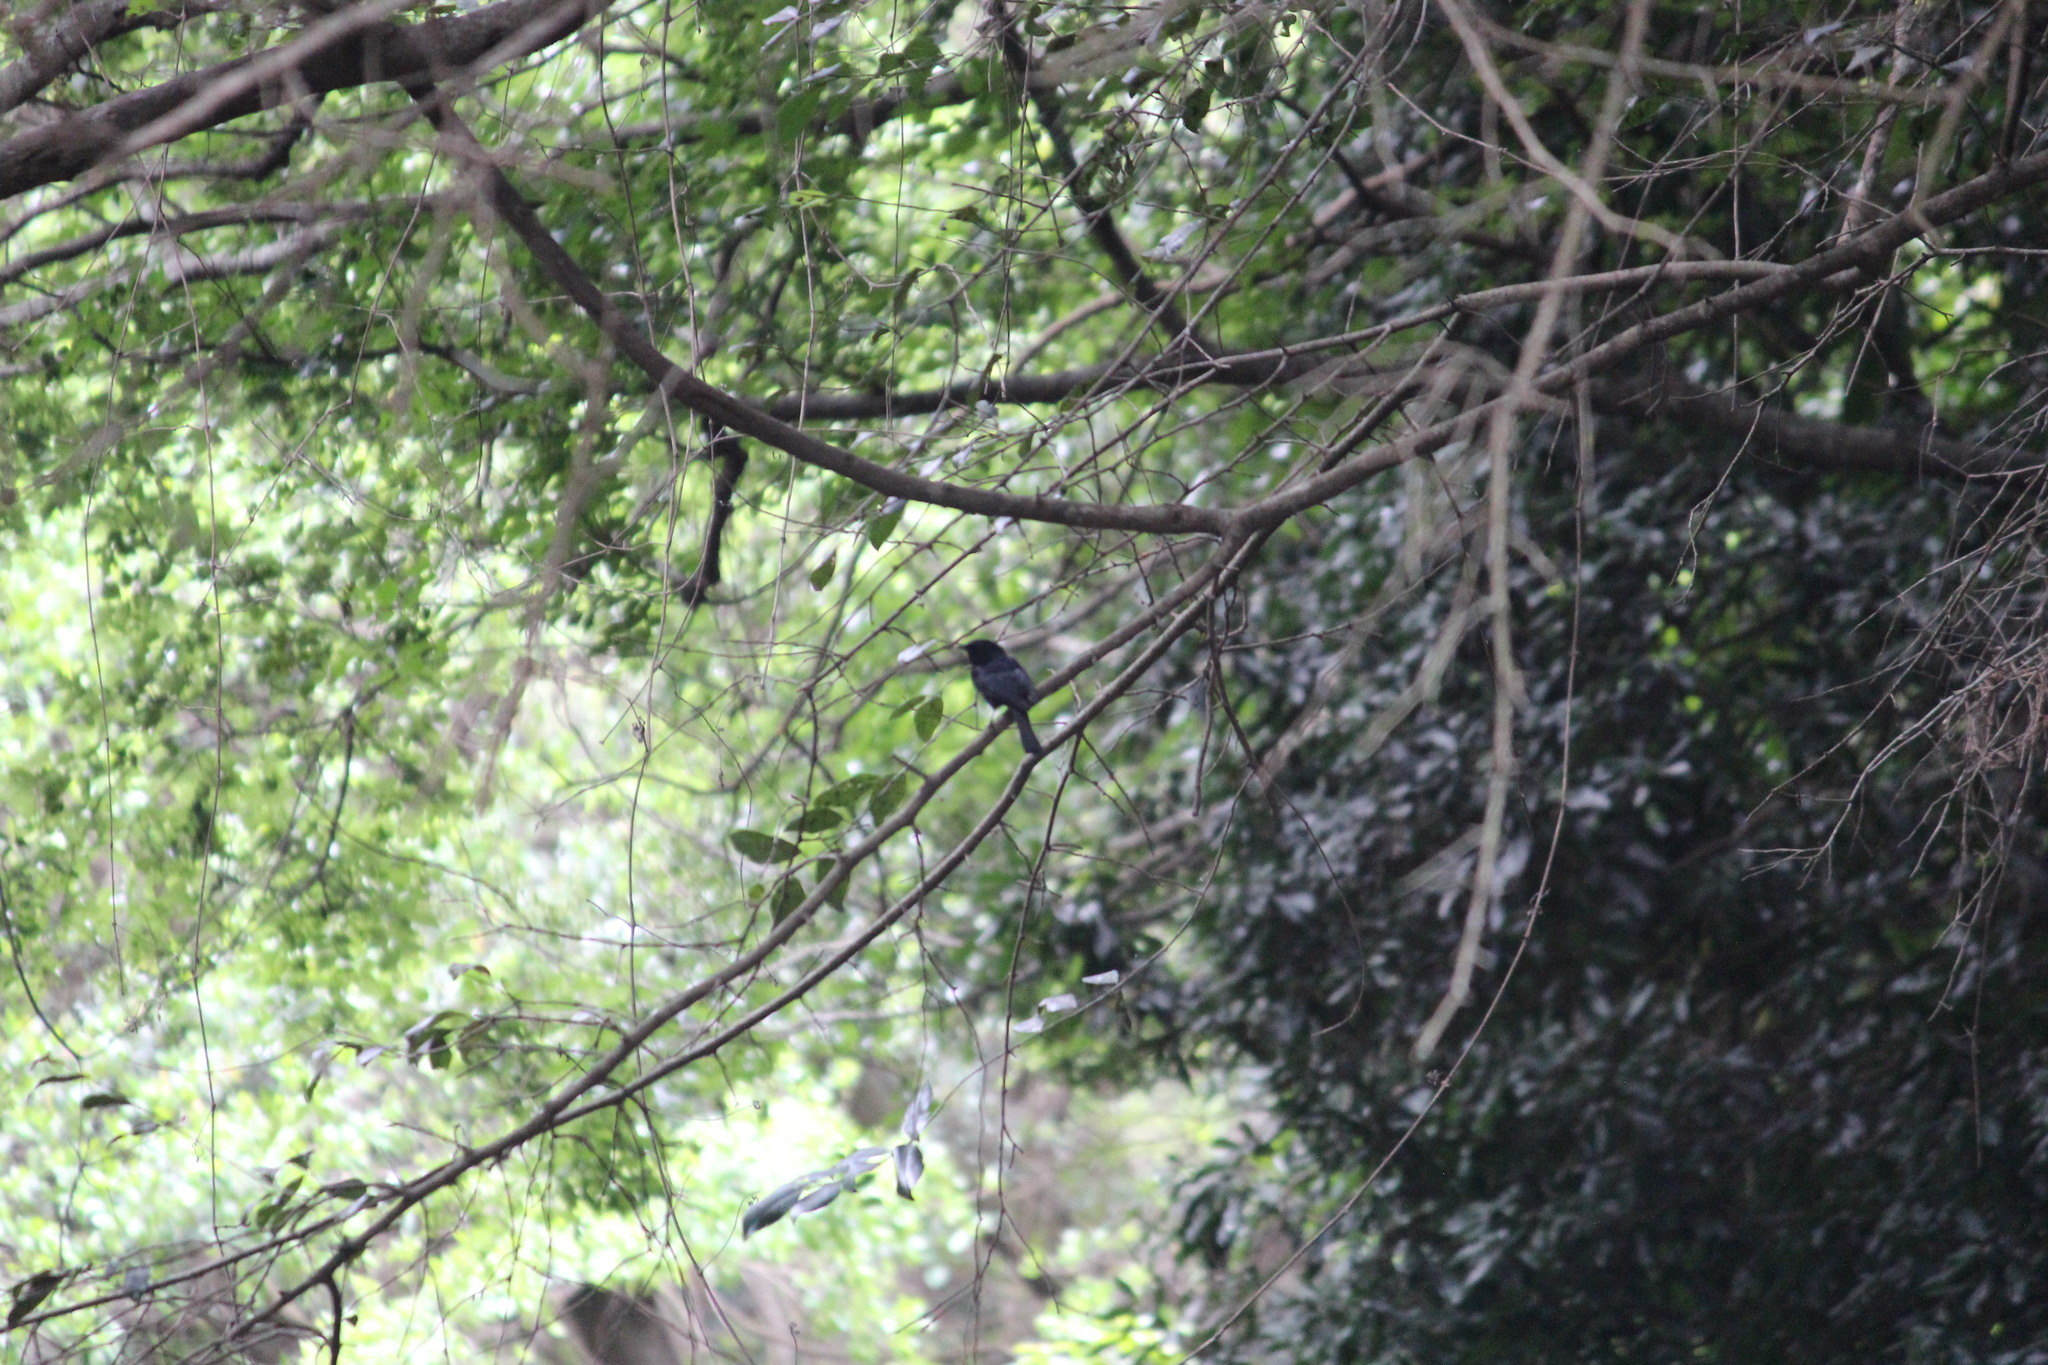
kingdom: Animalia
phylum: Chordata
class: Aves
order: Passeriformes
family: Muscicapidae
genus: Melaenornis
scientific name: Melaenornis pammelaina
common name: Southern black flycatcher
